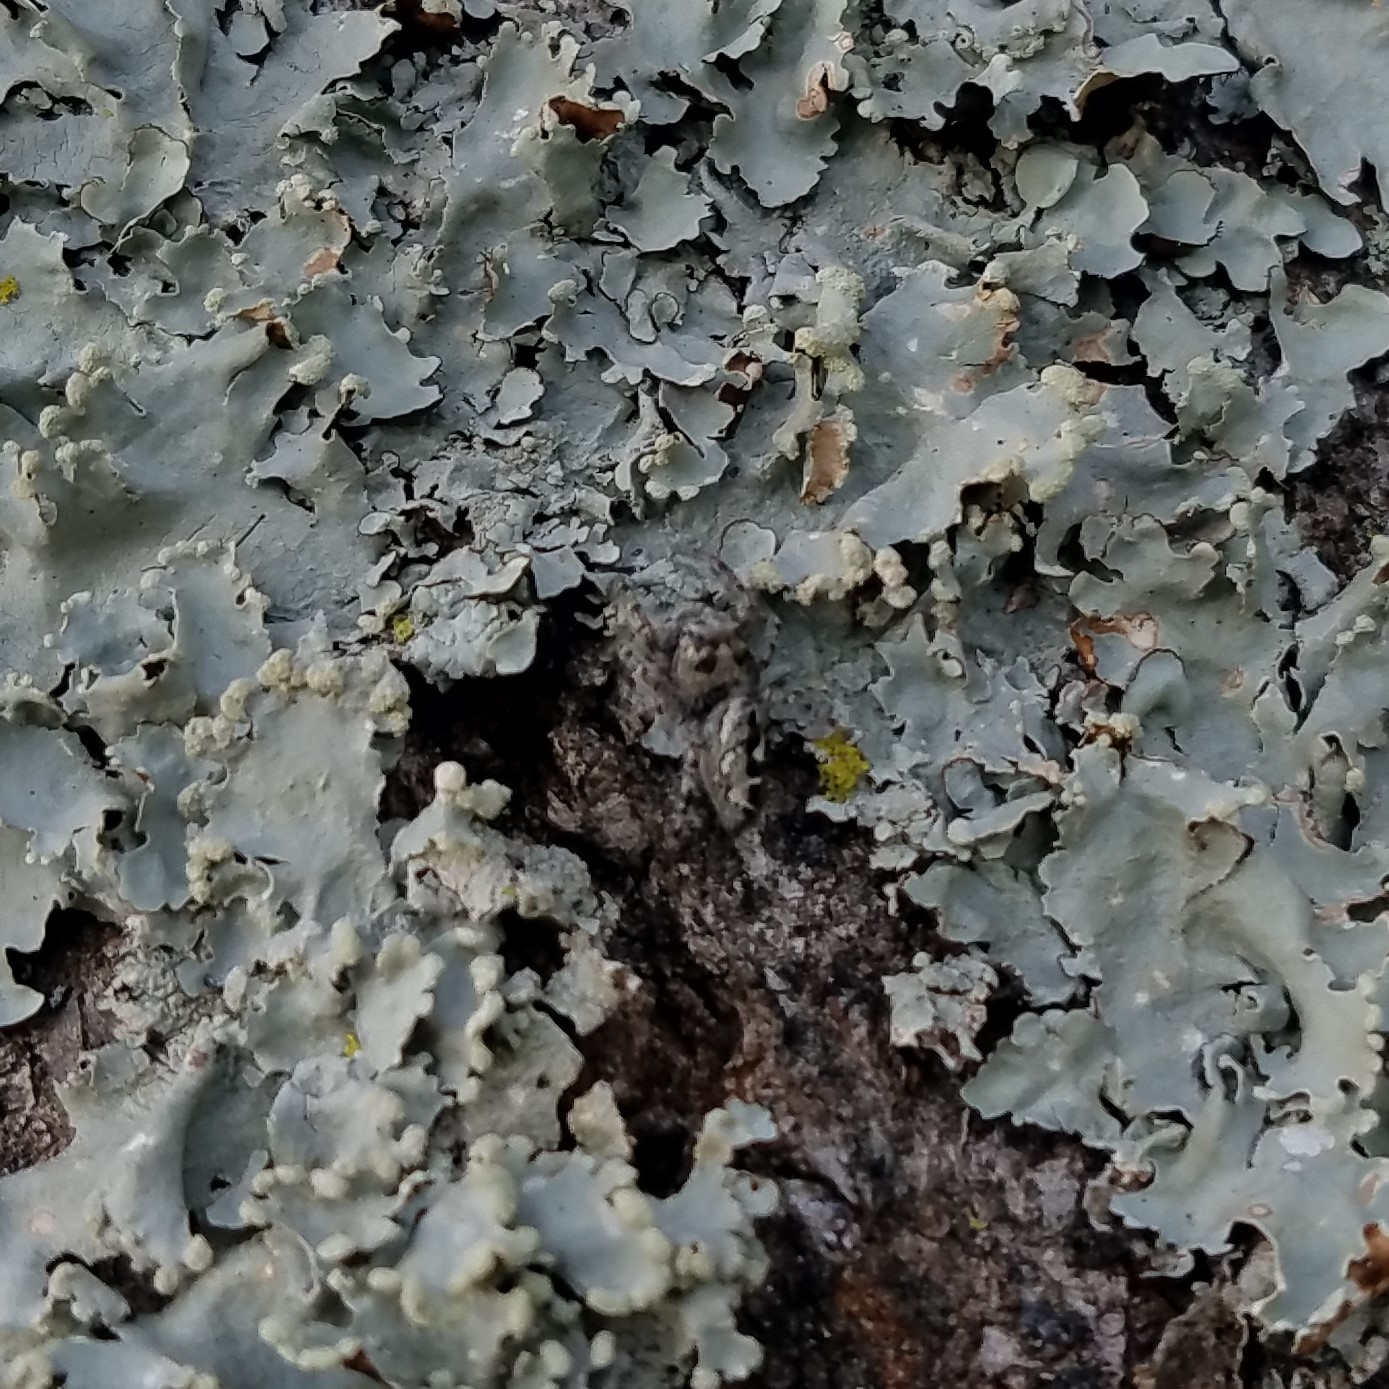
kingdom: Animalia
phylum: Arthropoda
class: Arachnida
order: Araneae
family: Salticidae
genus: Phidippus
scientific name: Phidippus putnami
